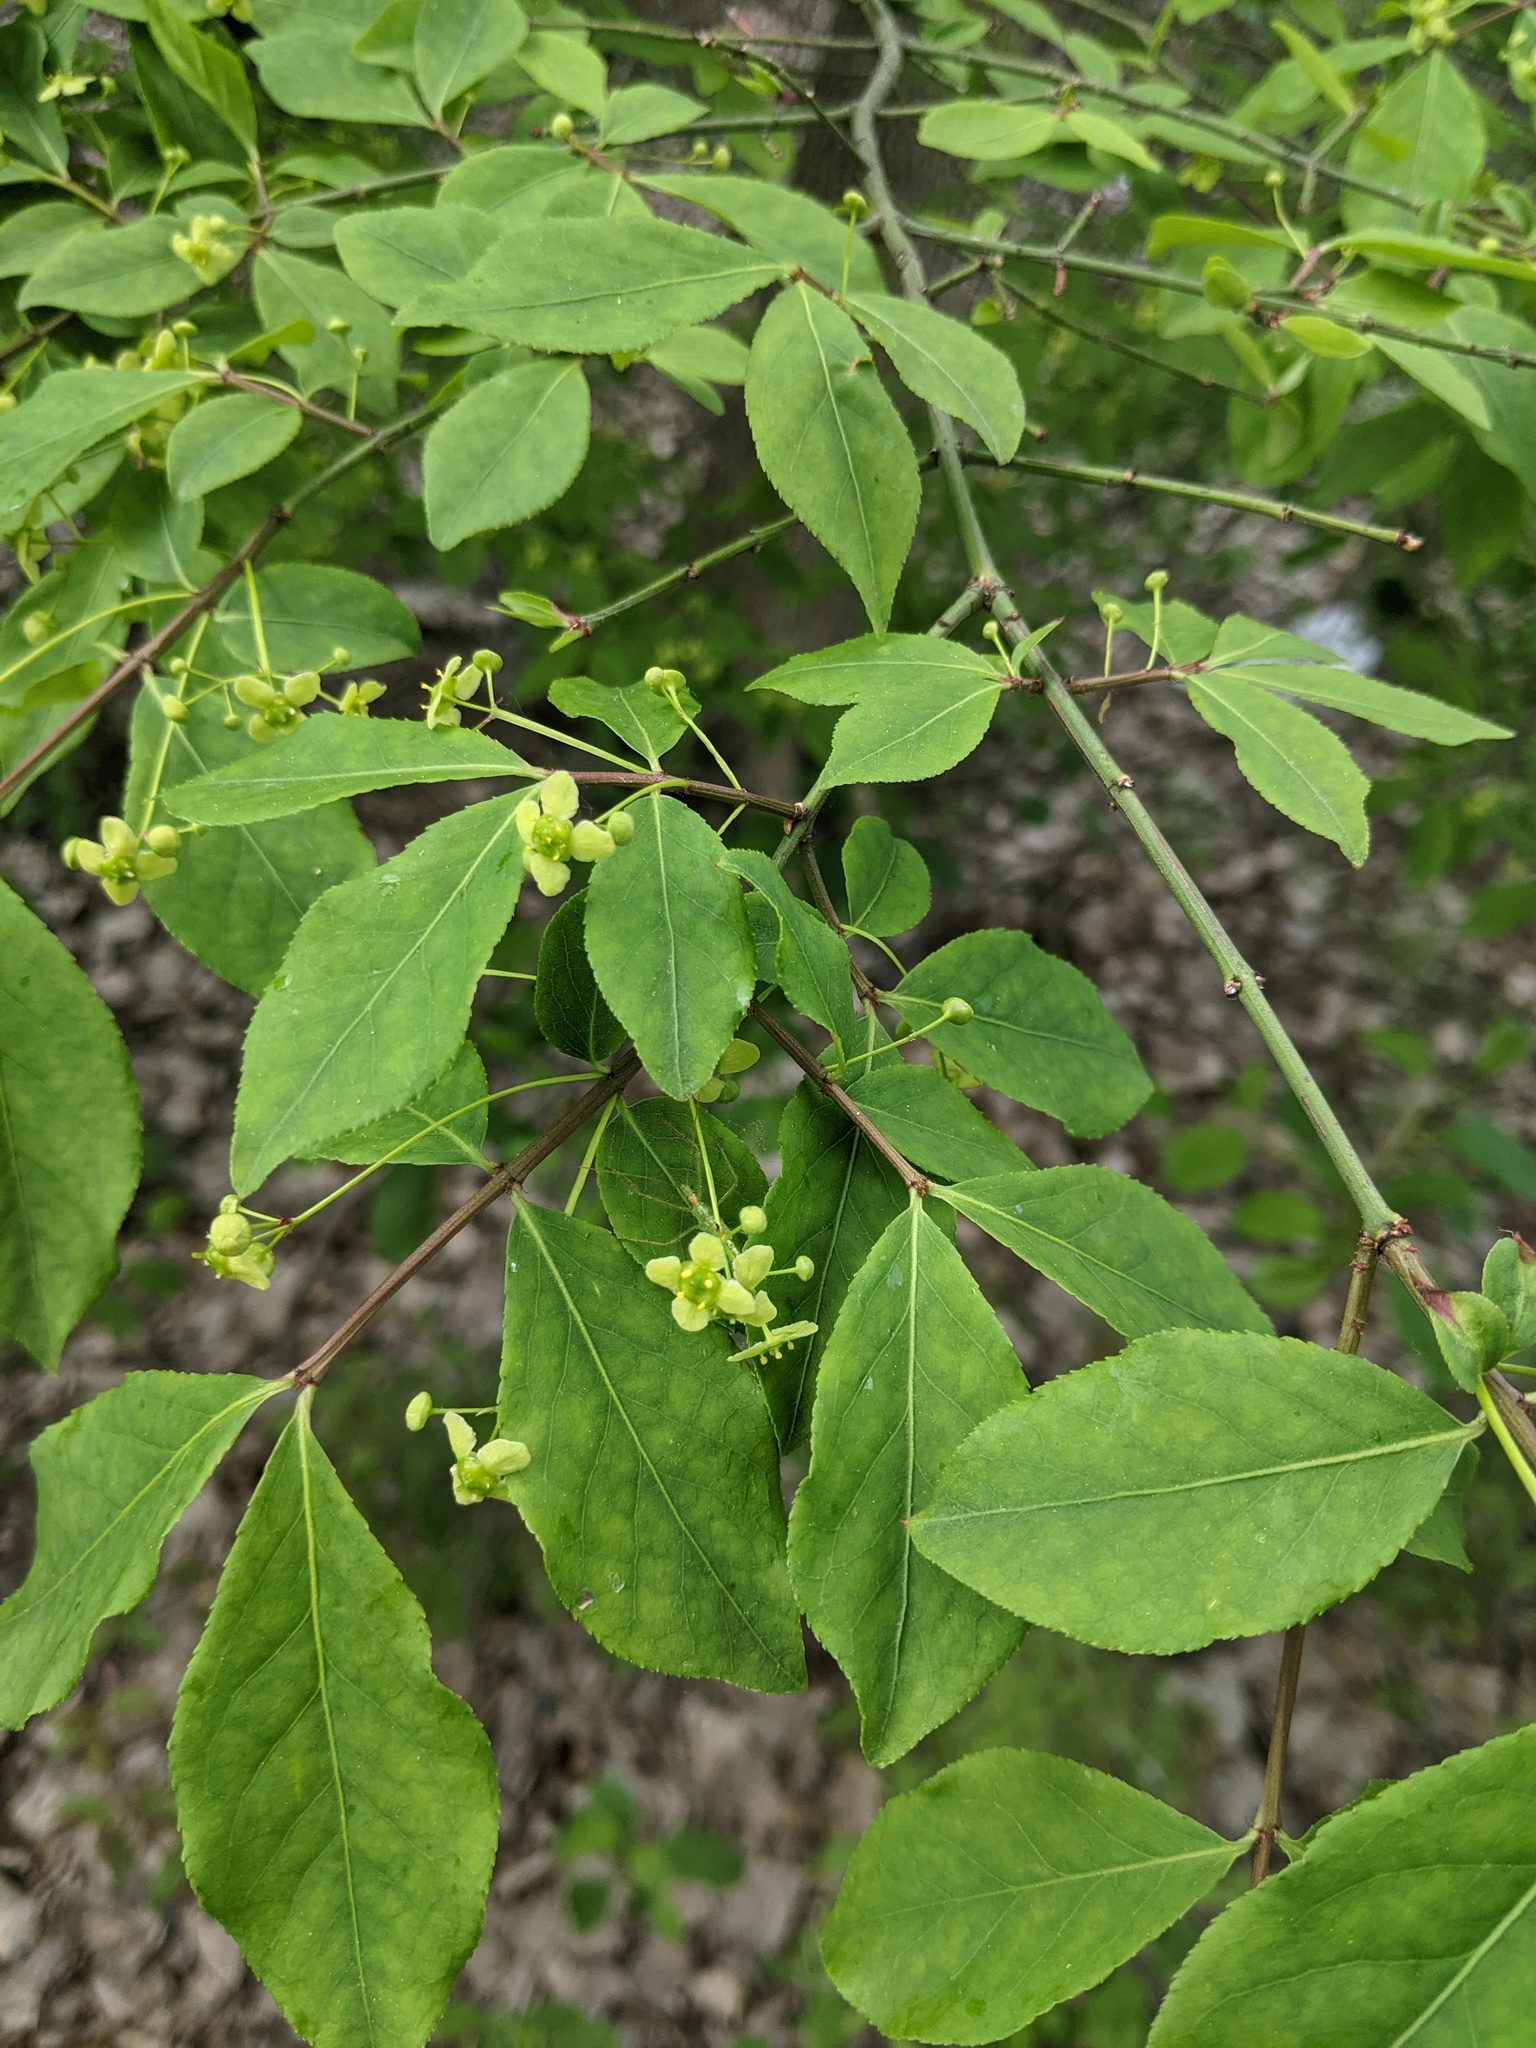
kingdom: Plantae
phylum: Tracheophyta
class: Magnoliopsida
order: Celastrales
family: Celastraceae
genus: Euonymus
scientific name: Euonymus alatus
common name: Winged euonymus
